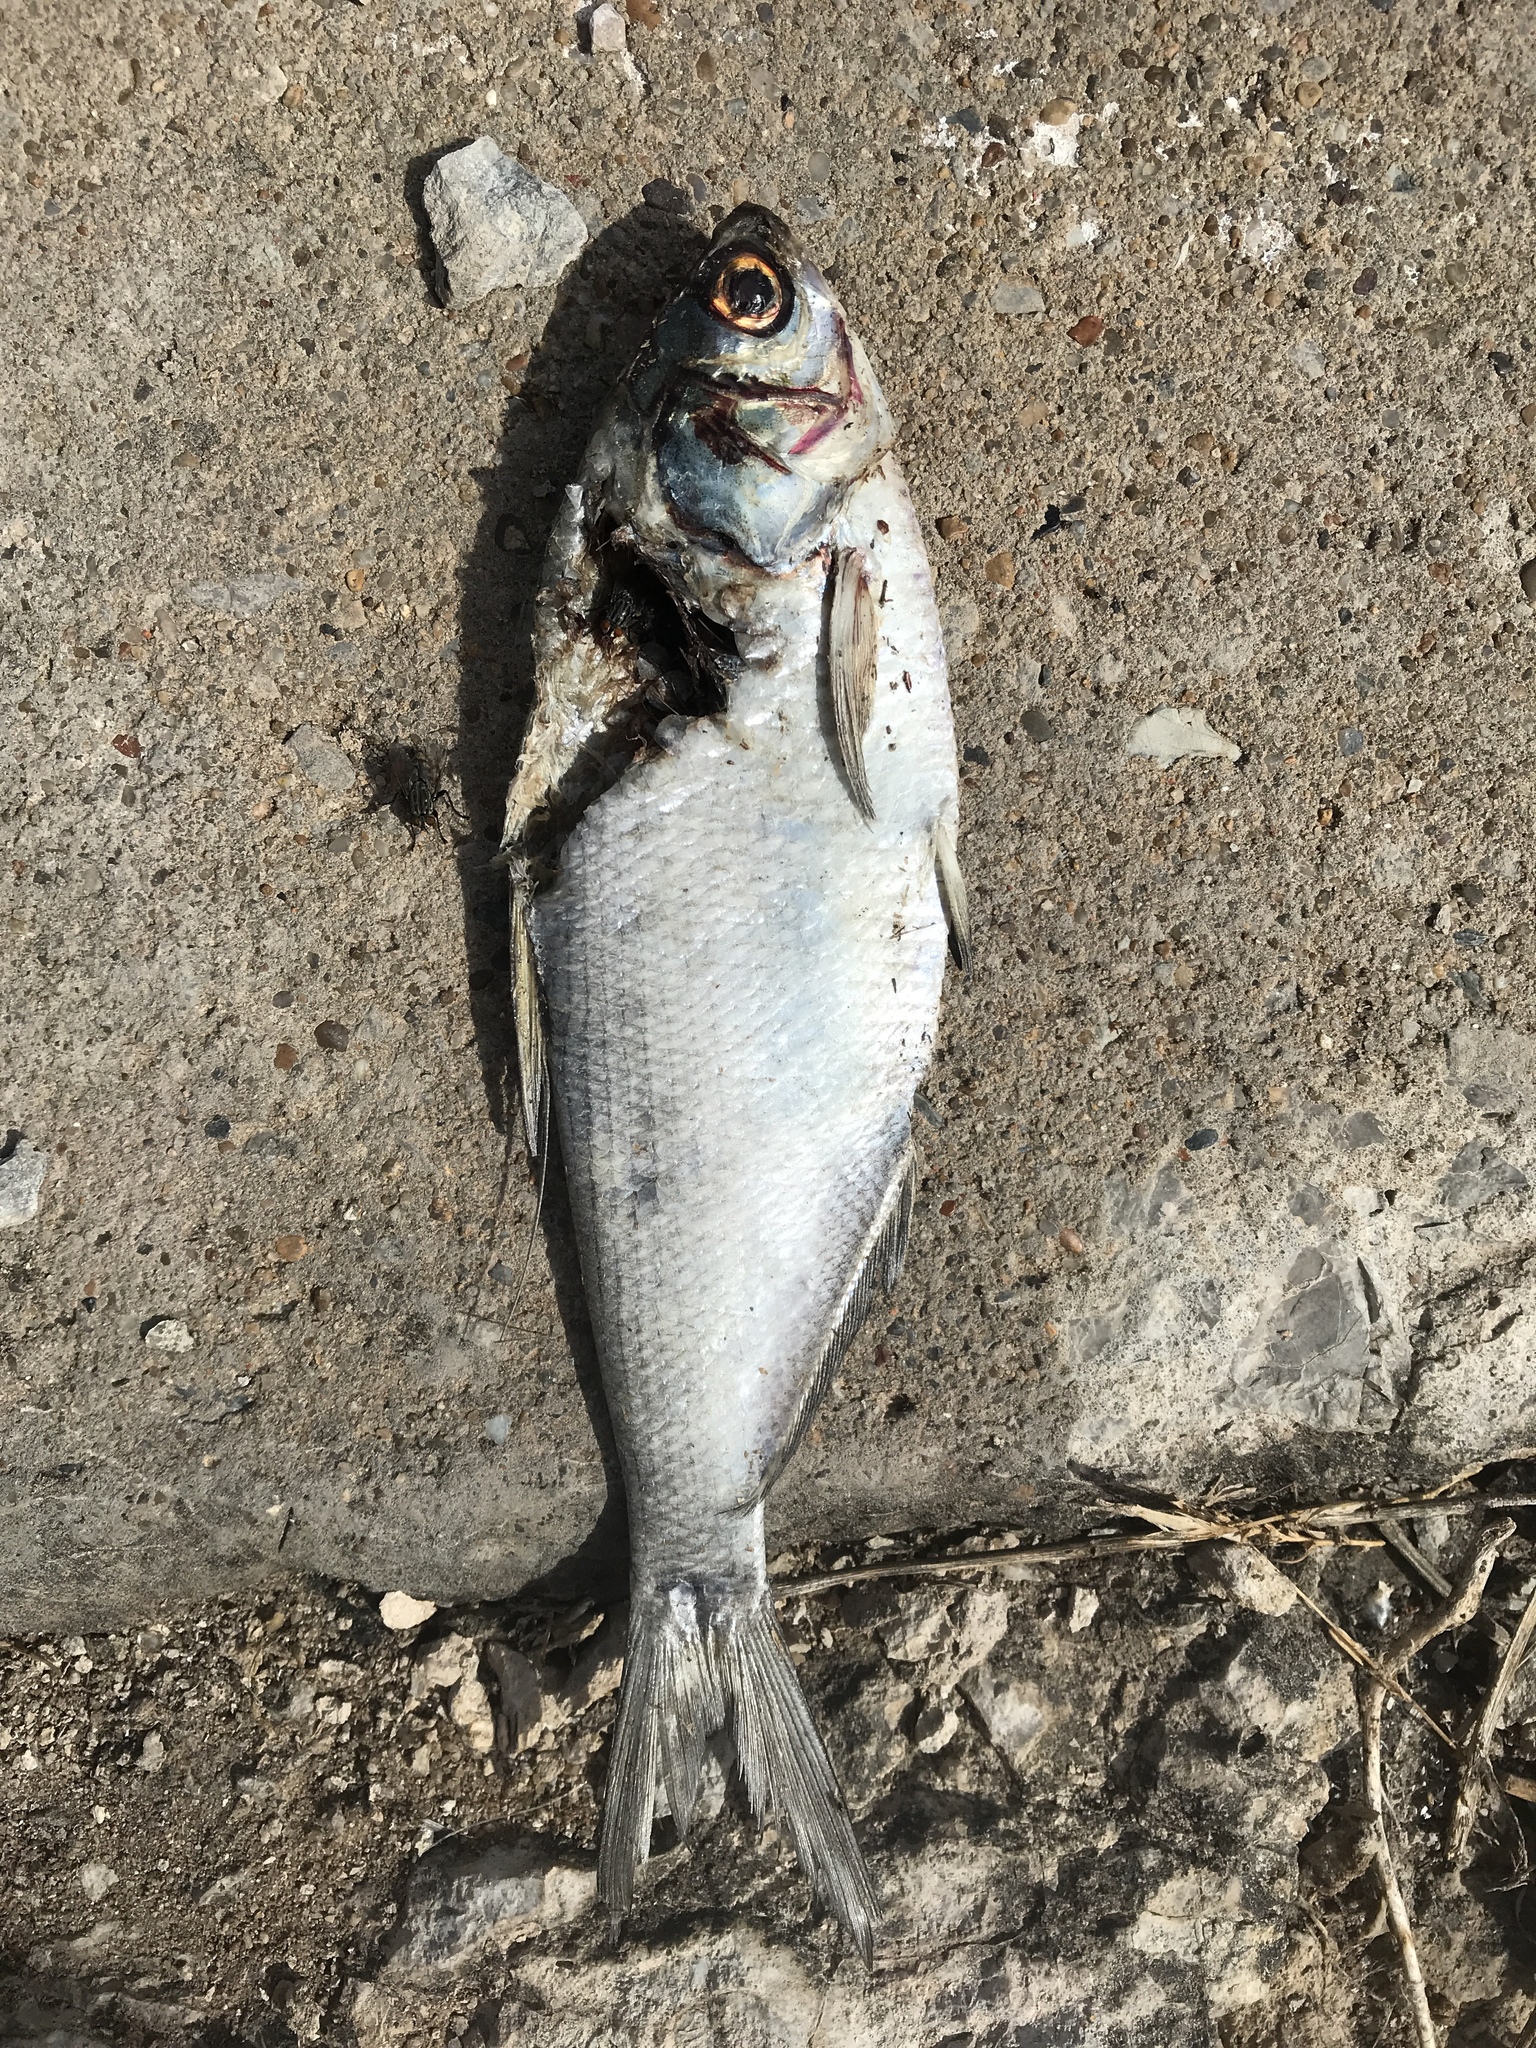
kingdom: Animalia
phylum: Chordata
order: Clupeiformes
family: Clupeidae
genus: Dorosoma
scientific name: Dorosoma cepedianum
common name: Gizzard shad
